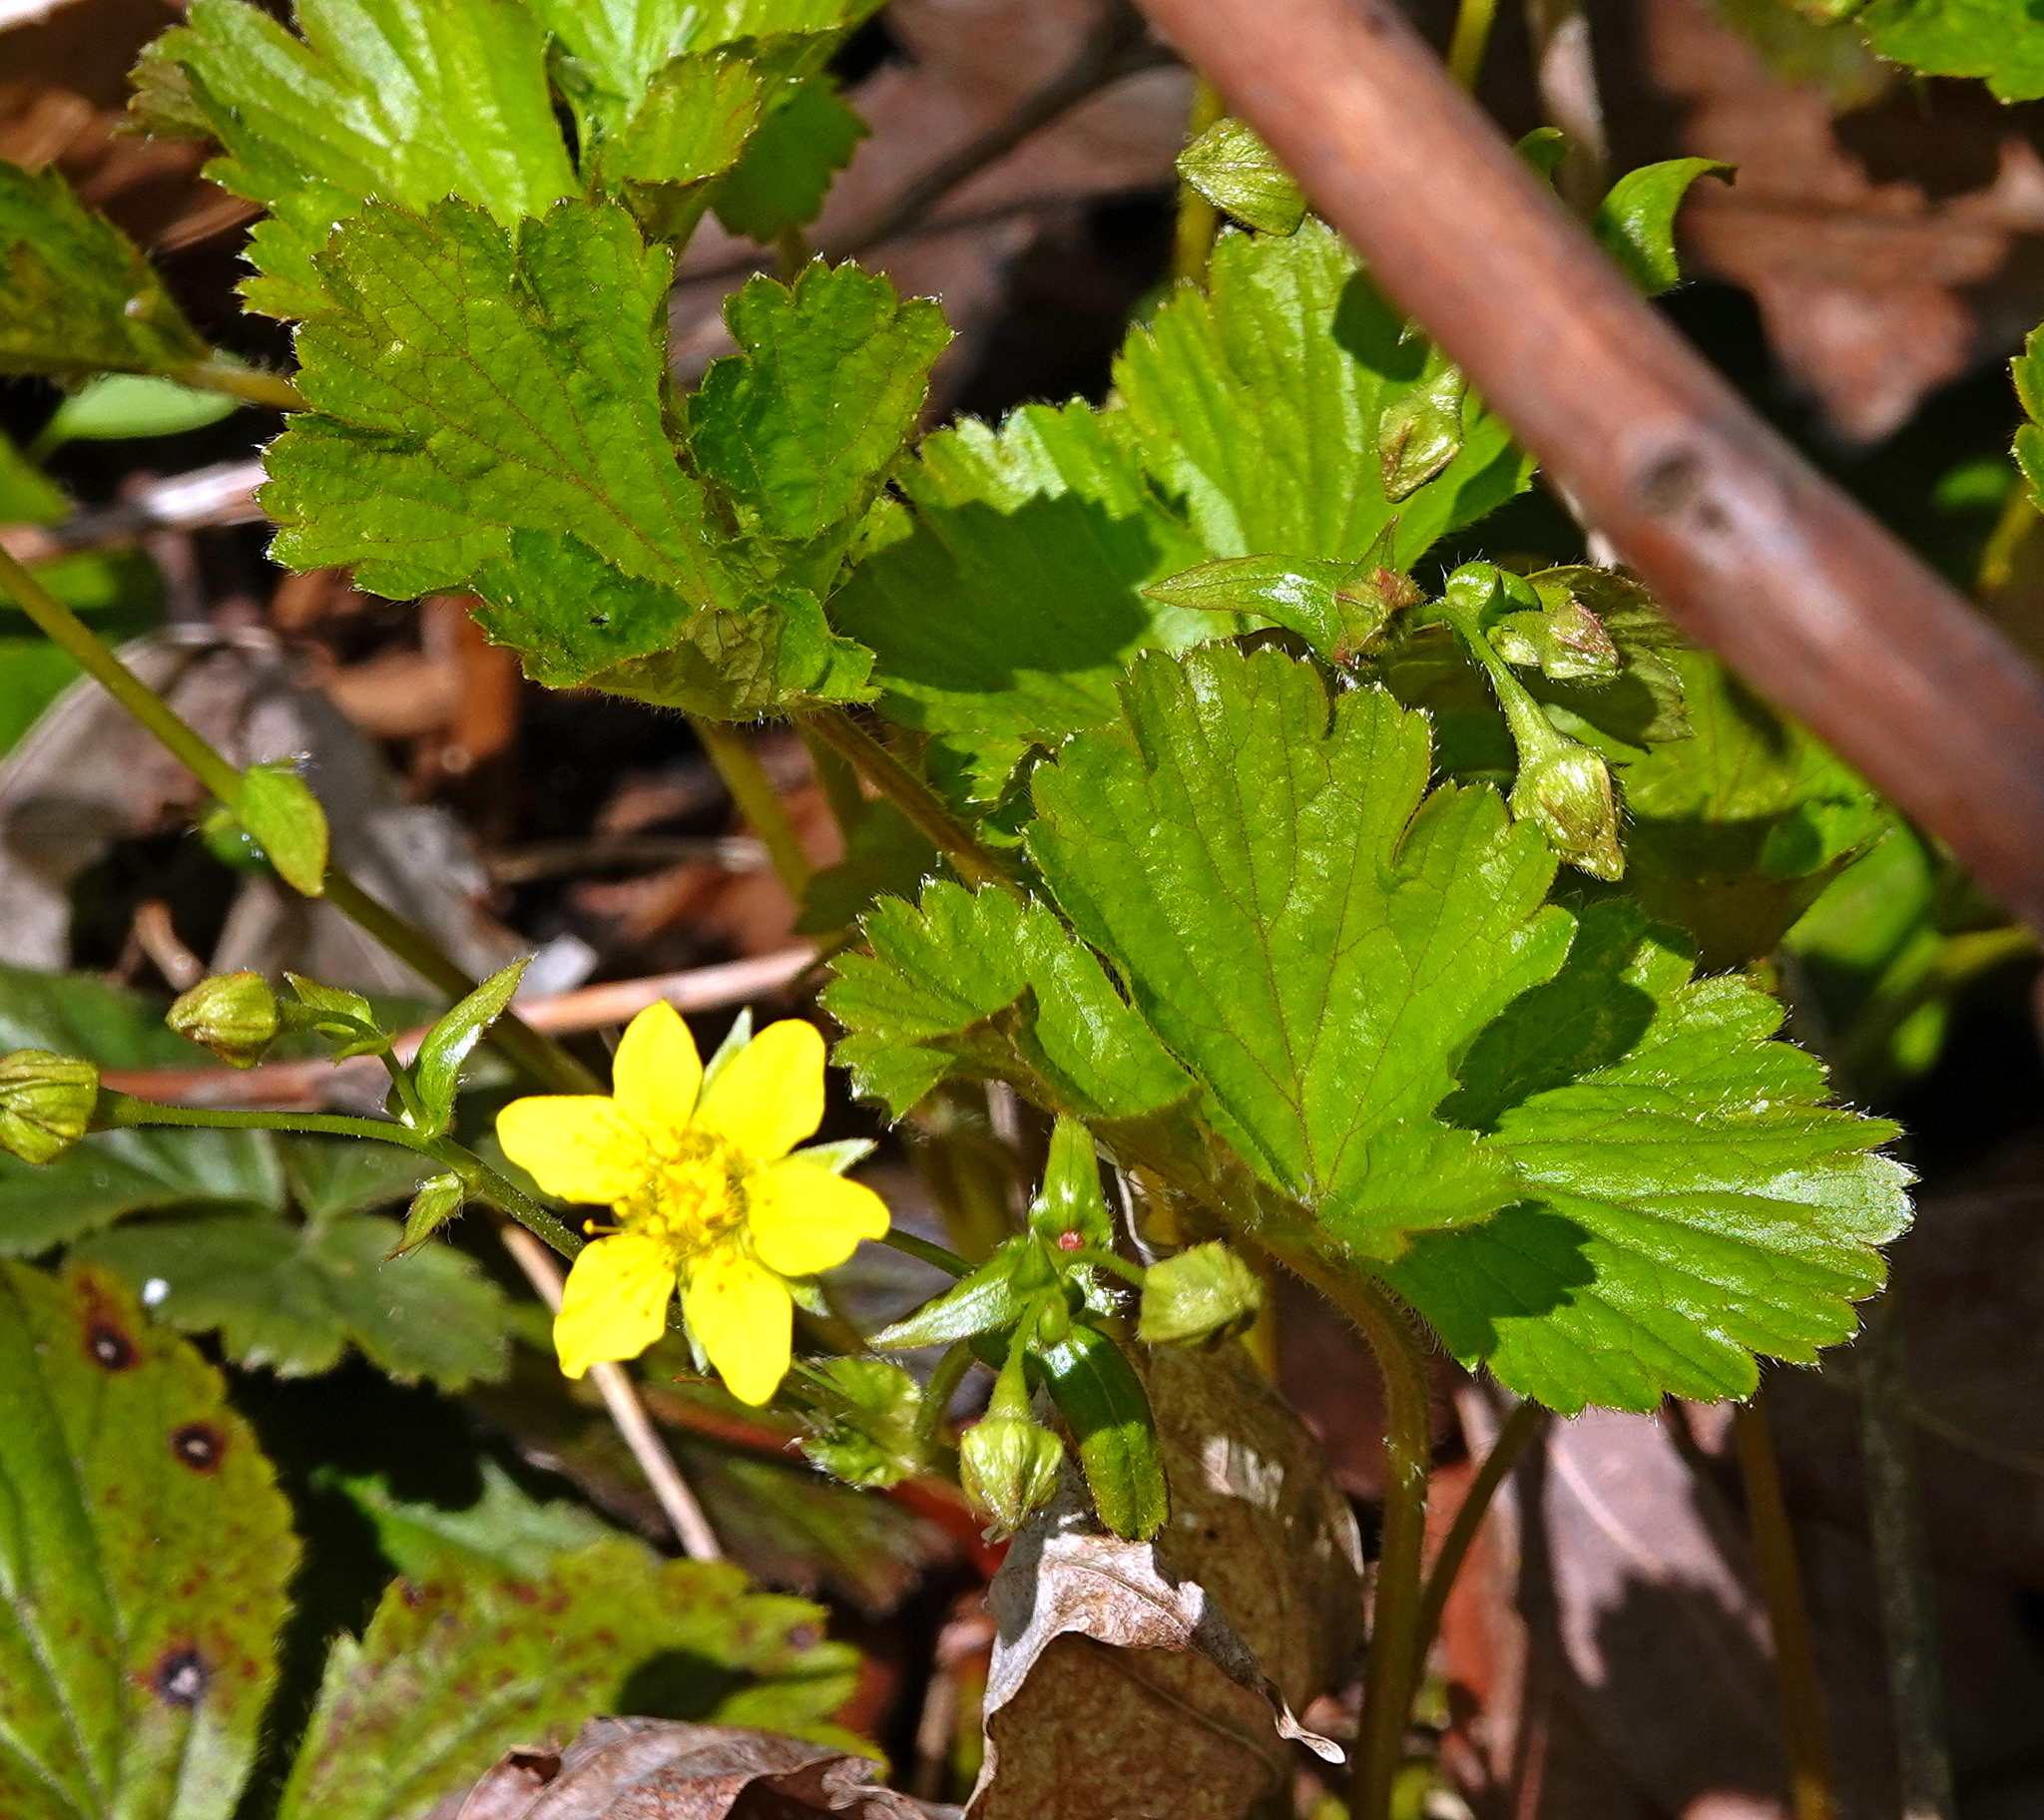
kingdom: Plantae
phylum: Tracheophyta
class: Magnoliopsida
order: Rosales
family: Rosaceae
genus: Geum
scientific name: Geum fragarioides
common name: Appalachian barren strawberry
